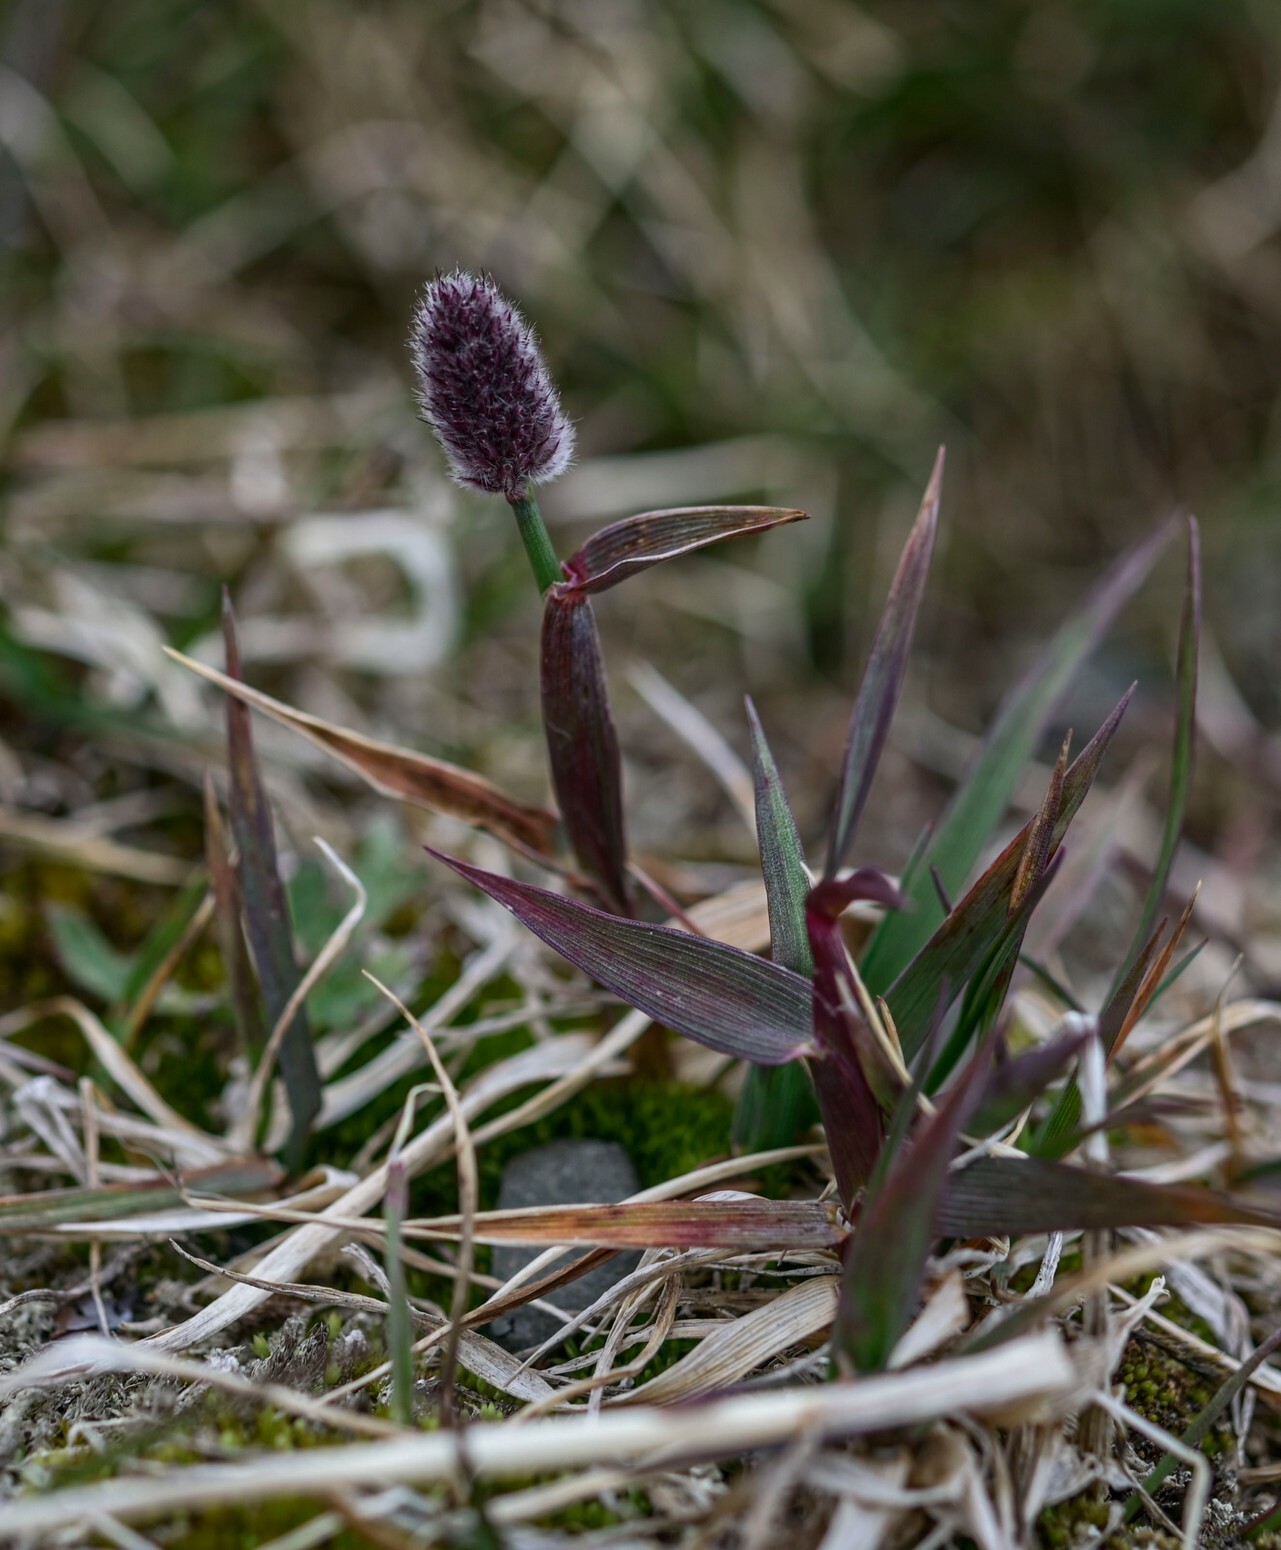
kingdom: Plantae
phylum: Tracheophyta
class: Liliopsida
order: Poales
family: Poaceae
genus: Alopecurus
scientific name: Alopecurus magellanicus
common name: Alpine foxtail
